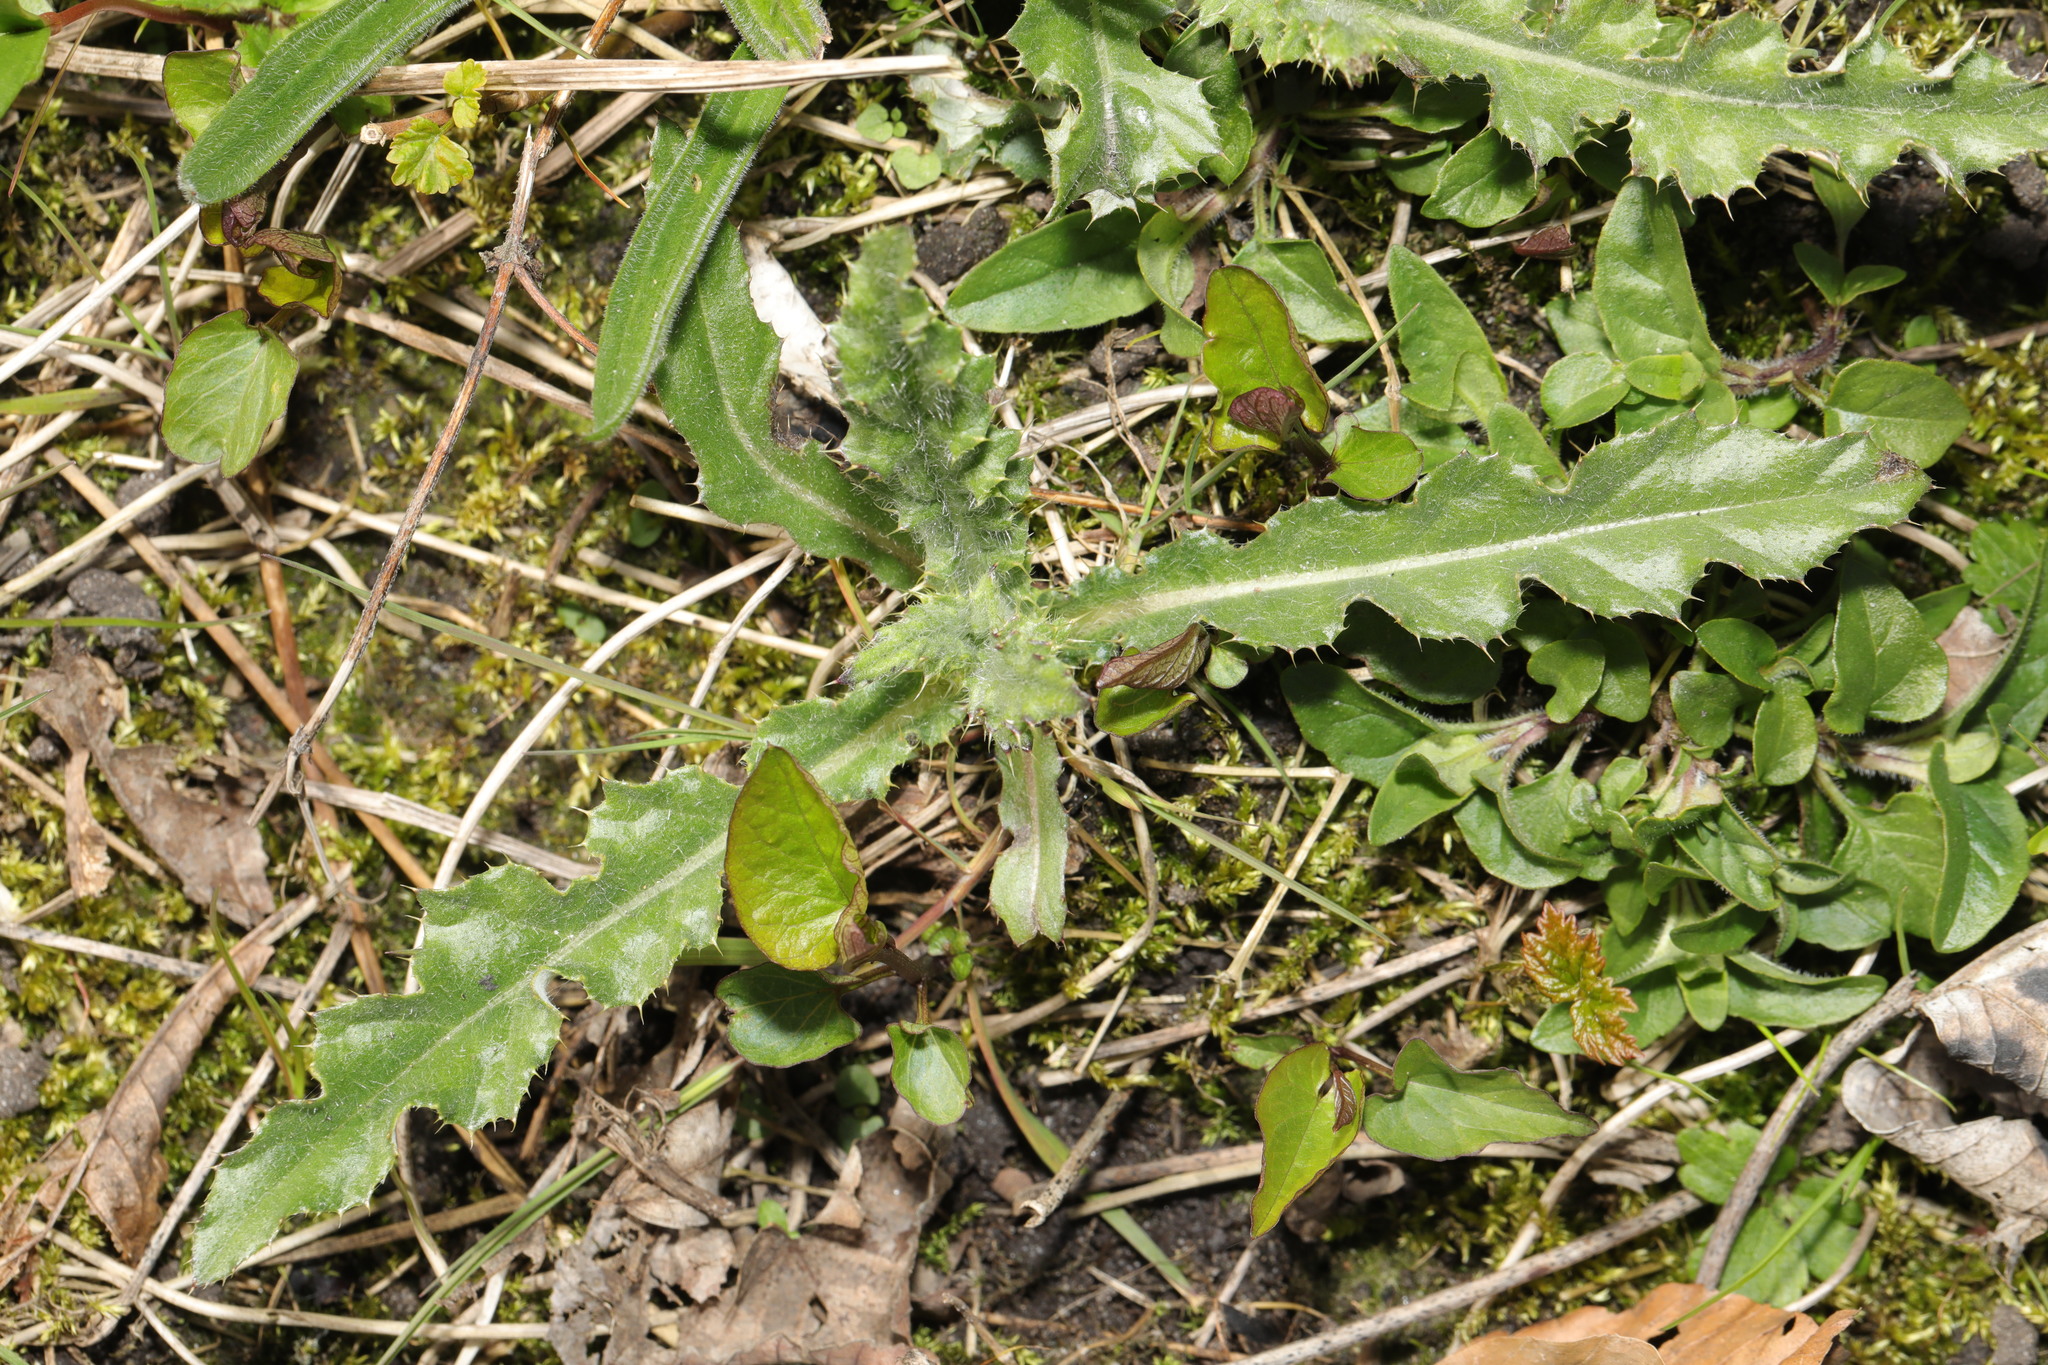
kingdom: Plantae
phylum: Tracheophyta
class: Magnoliopsida
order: Asterales
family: Asteraceae
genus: Cirsium
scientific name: Cirsium arvense
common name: Creeping thistle
